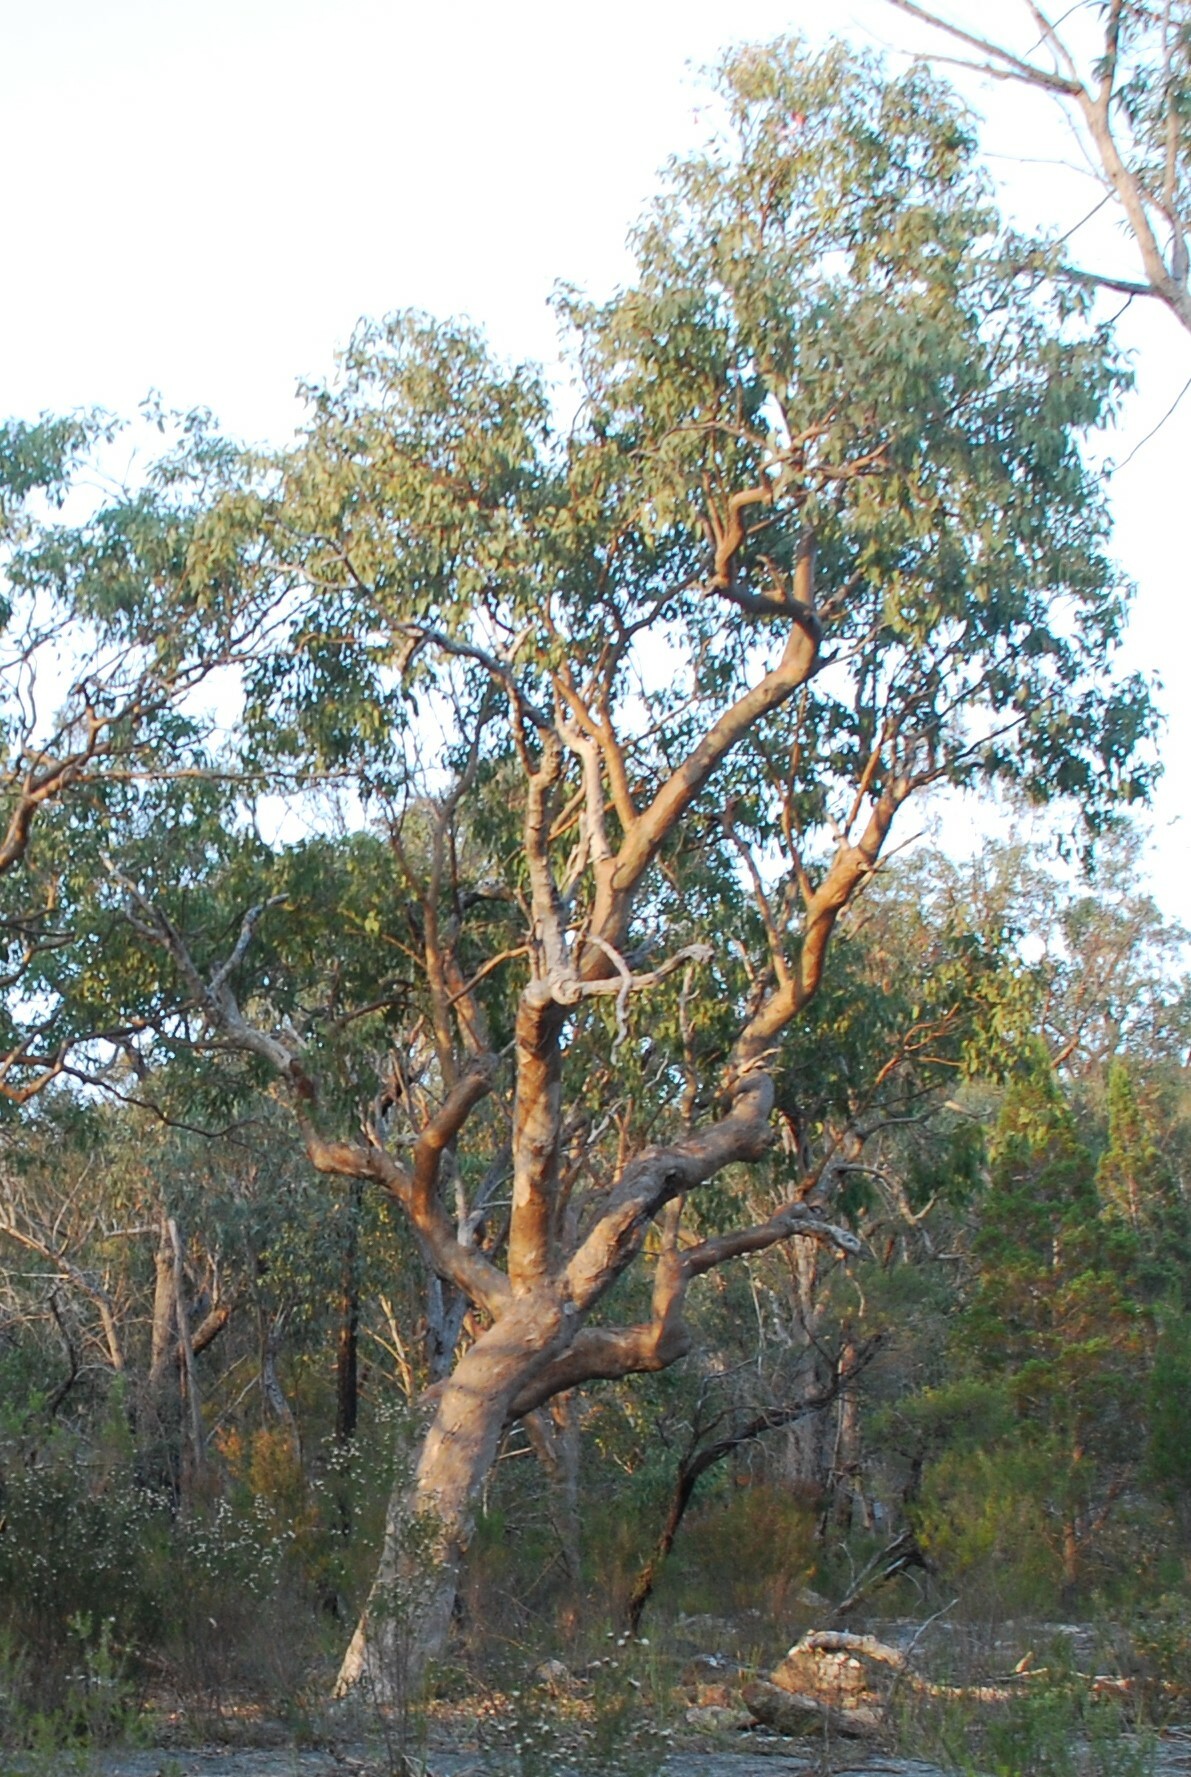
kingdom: Plantae
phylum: Tracheophyta
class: Magnoliopsida
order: Myrtales
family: Myrtaceae
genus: Eucalyptus
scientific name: Eucalyptus prava
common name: Orange gum
